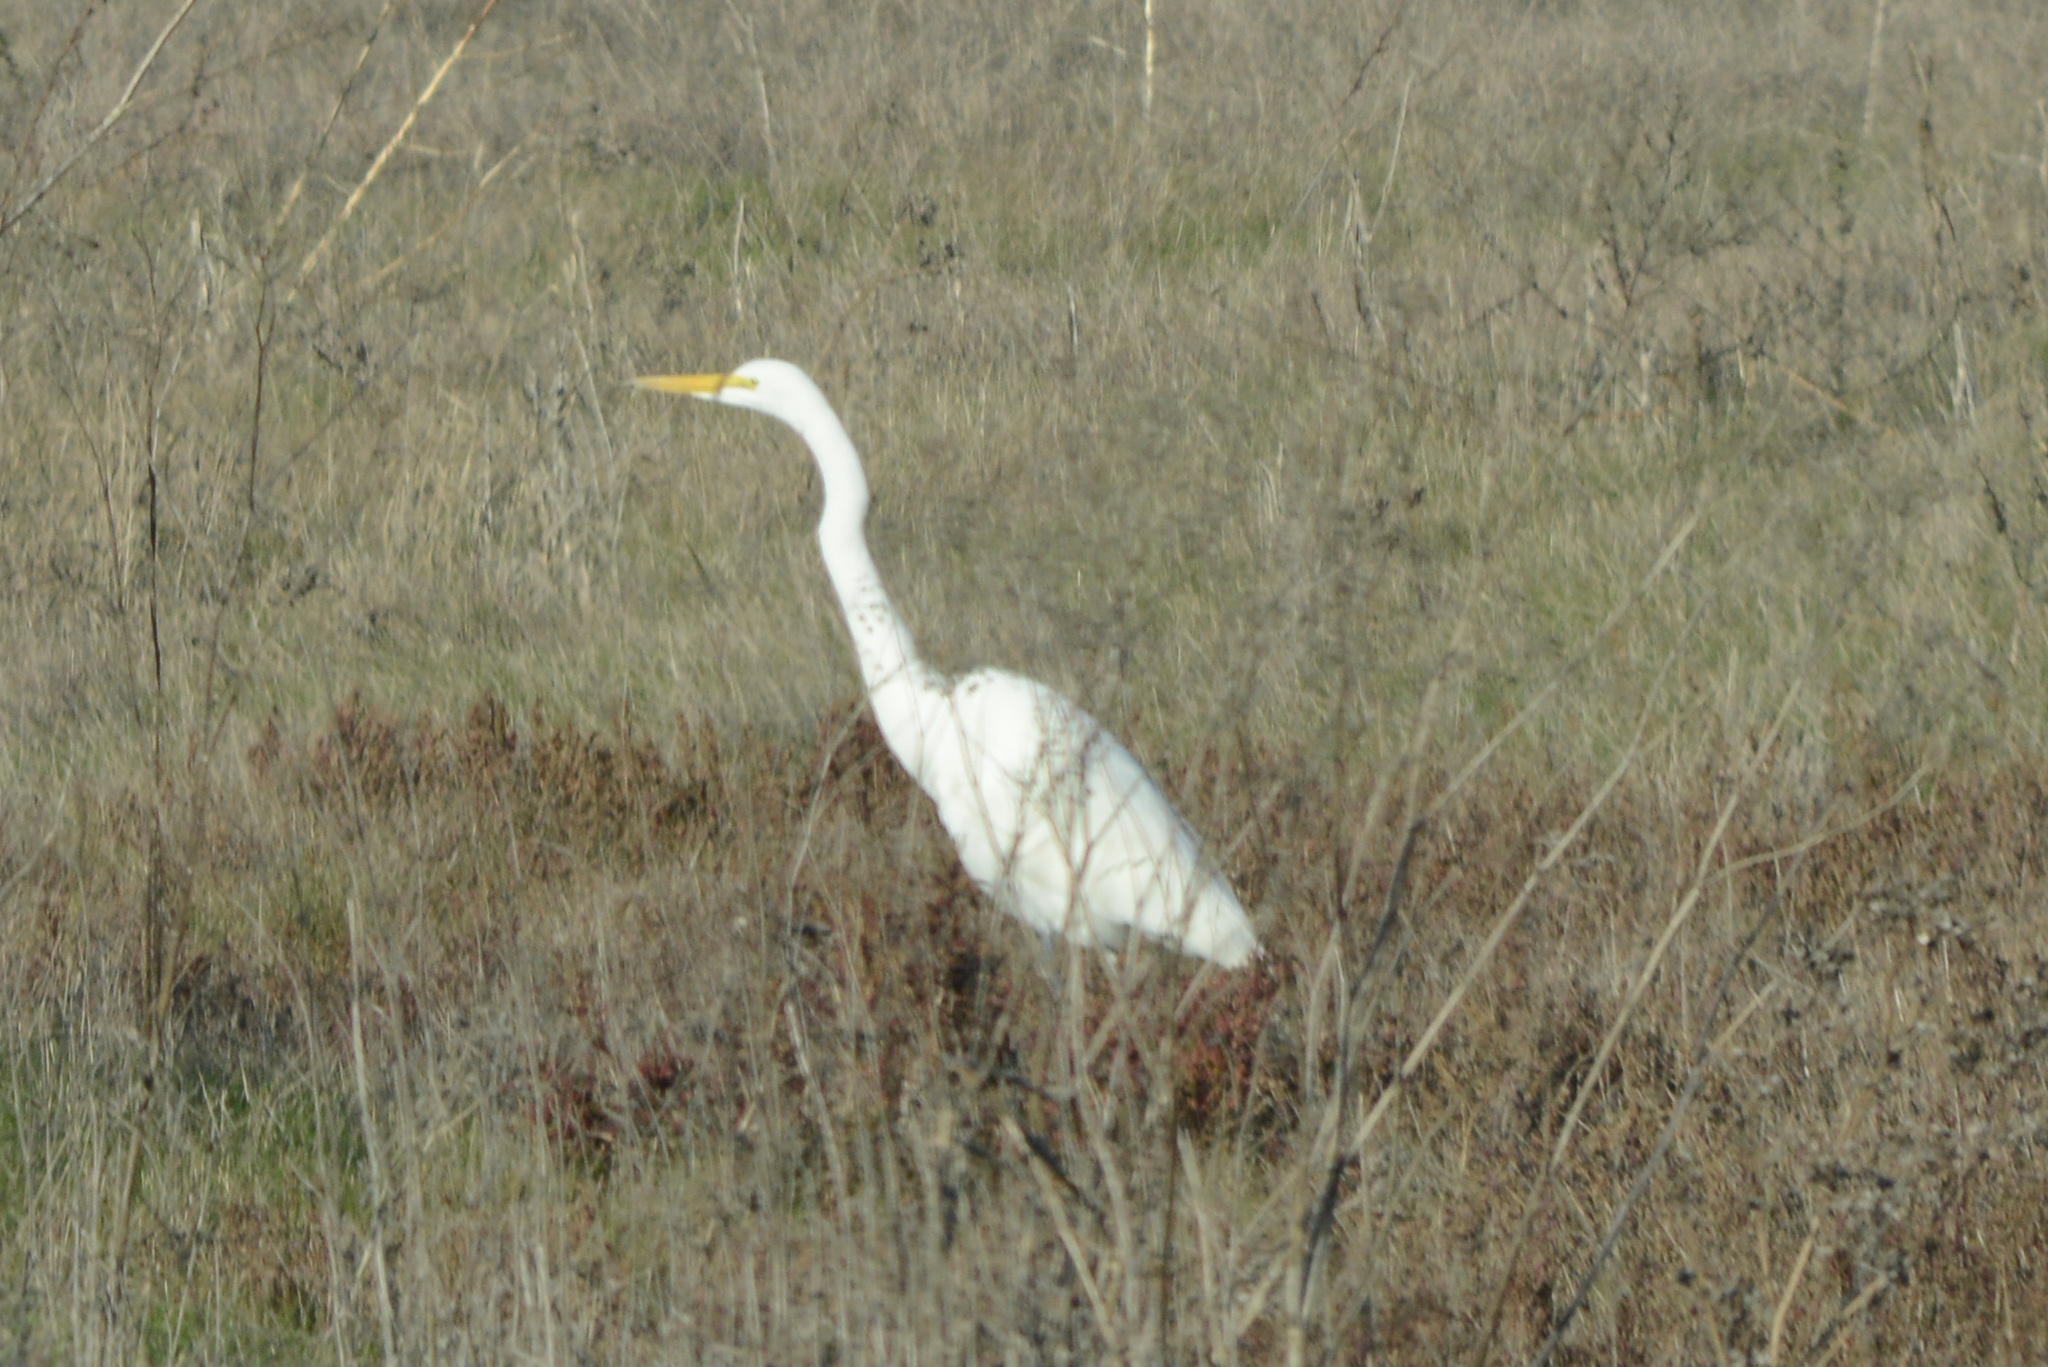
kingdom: Animalia
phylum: Chordata
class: Aves
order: Pelecaniformes
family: Ardeidae
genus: Ardea
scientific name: Ardea alba
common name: Great egret
